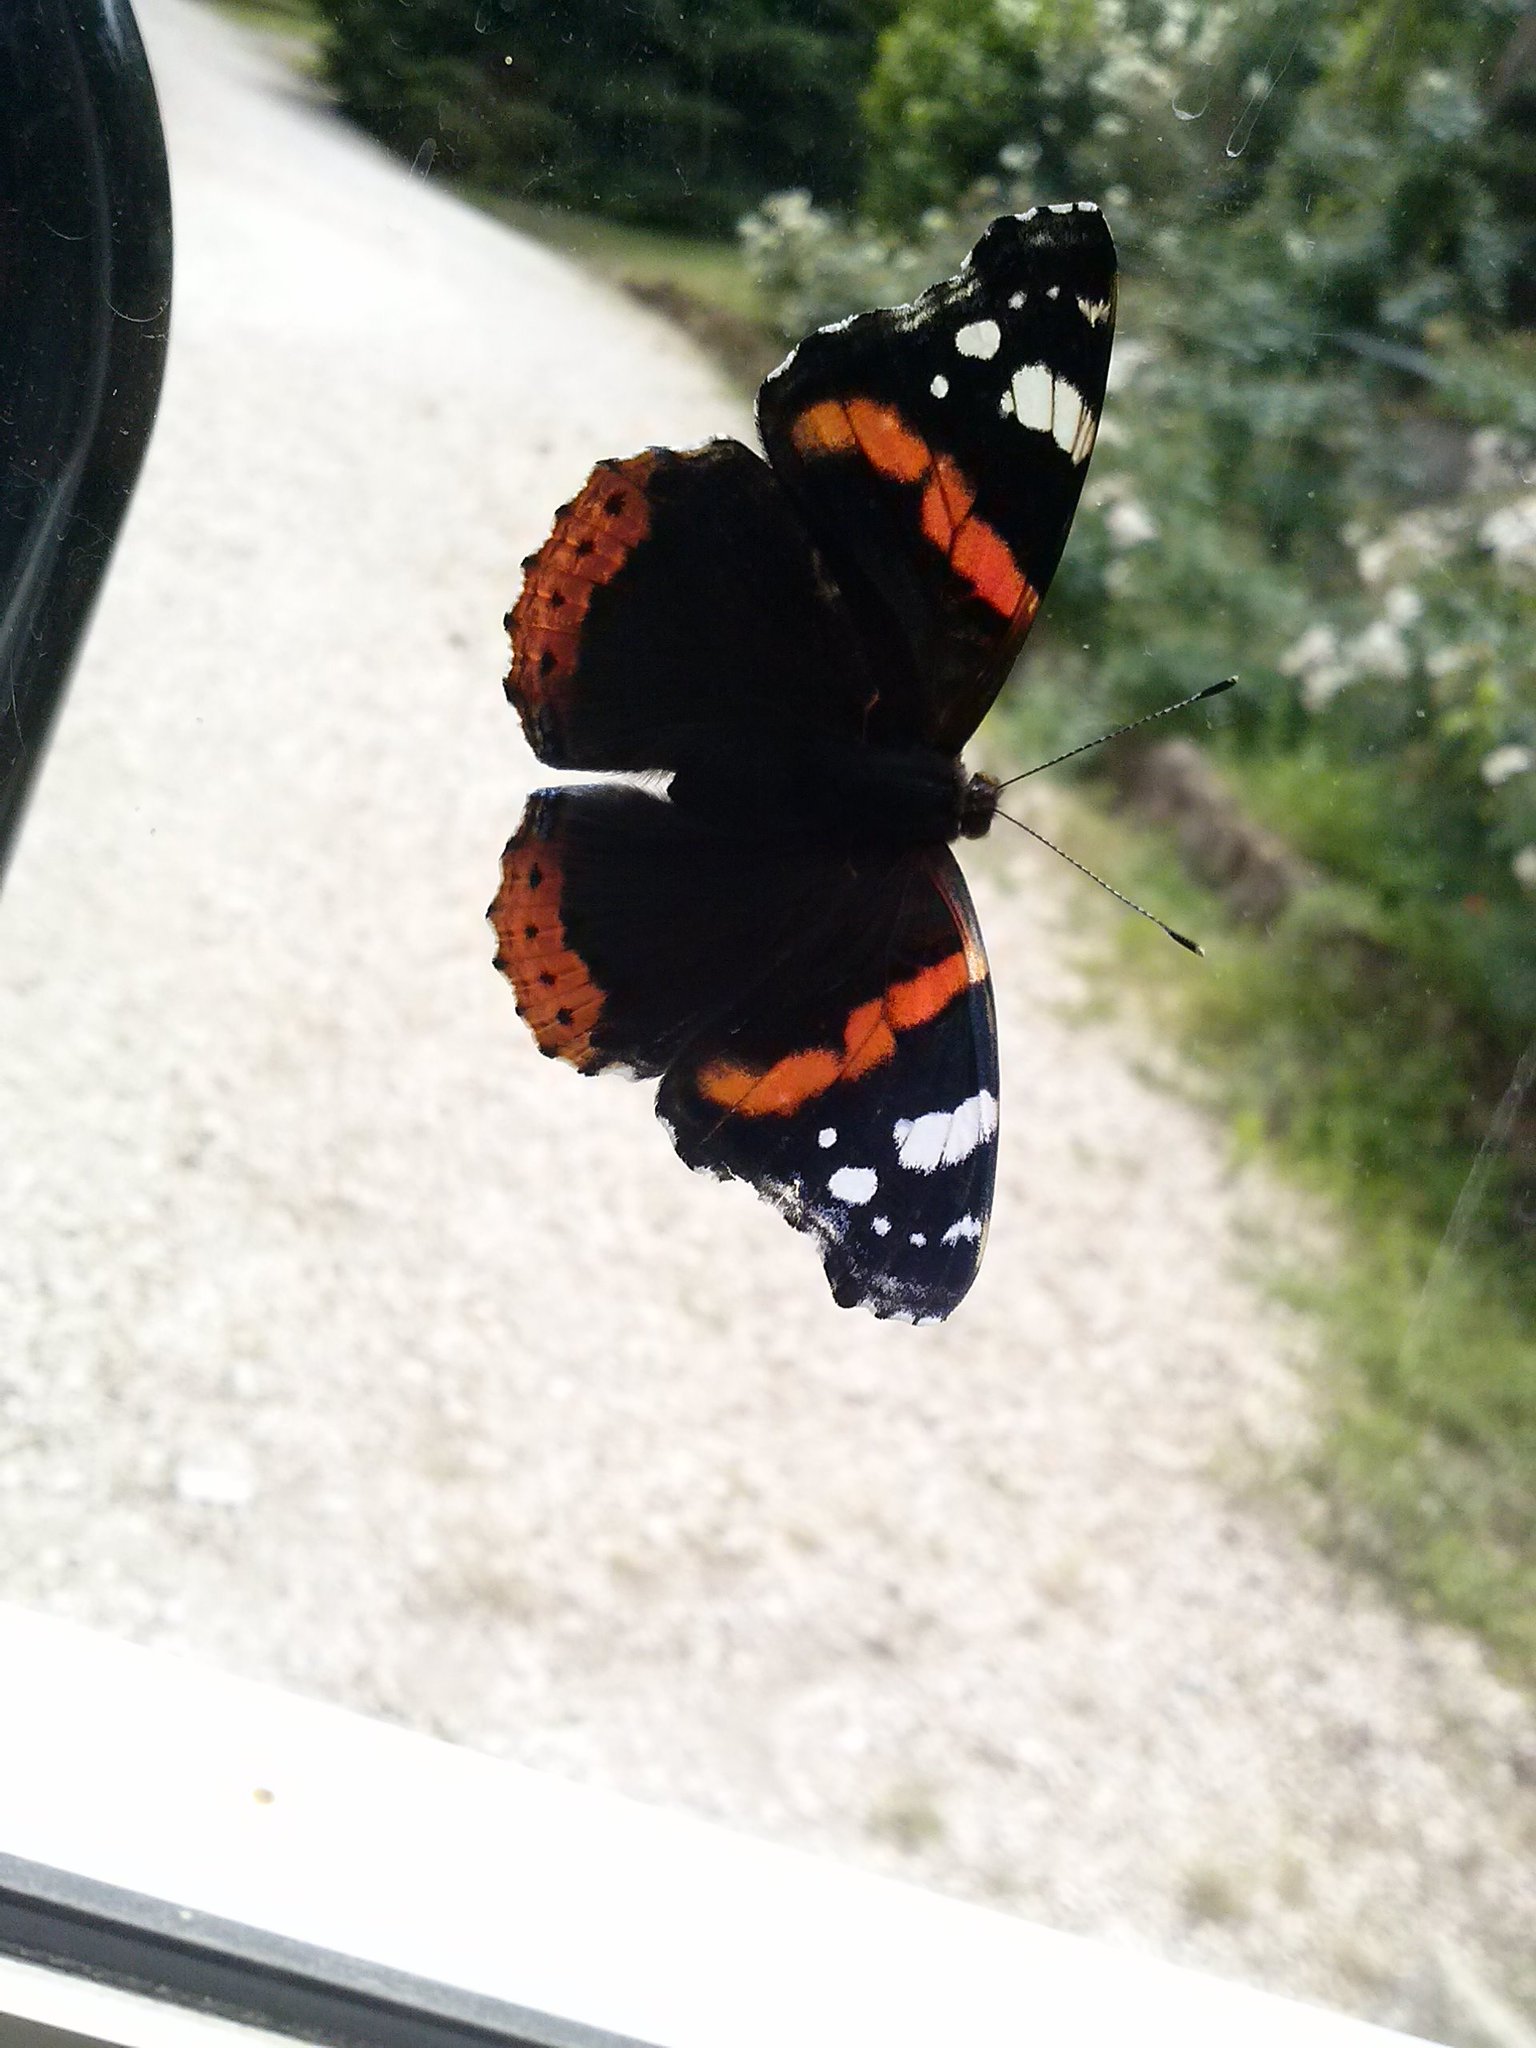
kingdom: Animalia
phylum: Arthropoda
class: Insecta
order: Lepidoptera
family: Nymphalidae
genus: Vanessa
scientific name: Vanessa atalanta
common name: Red admiral
